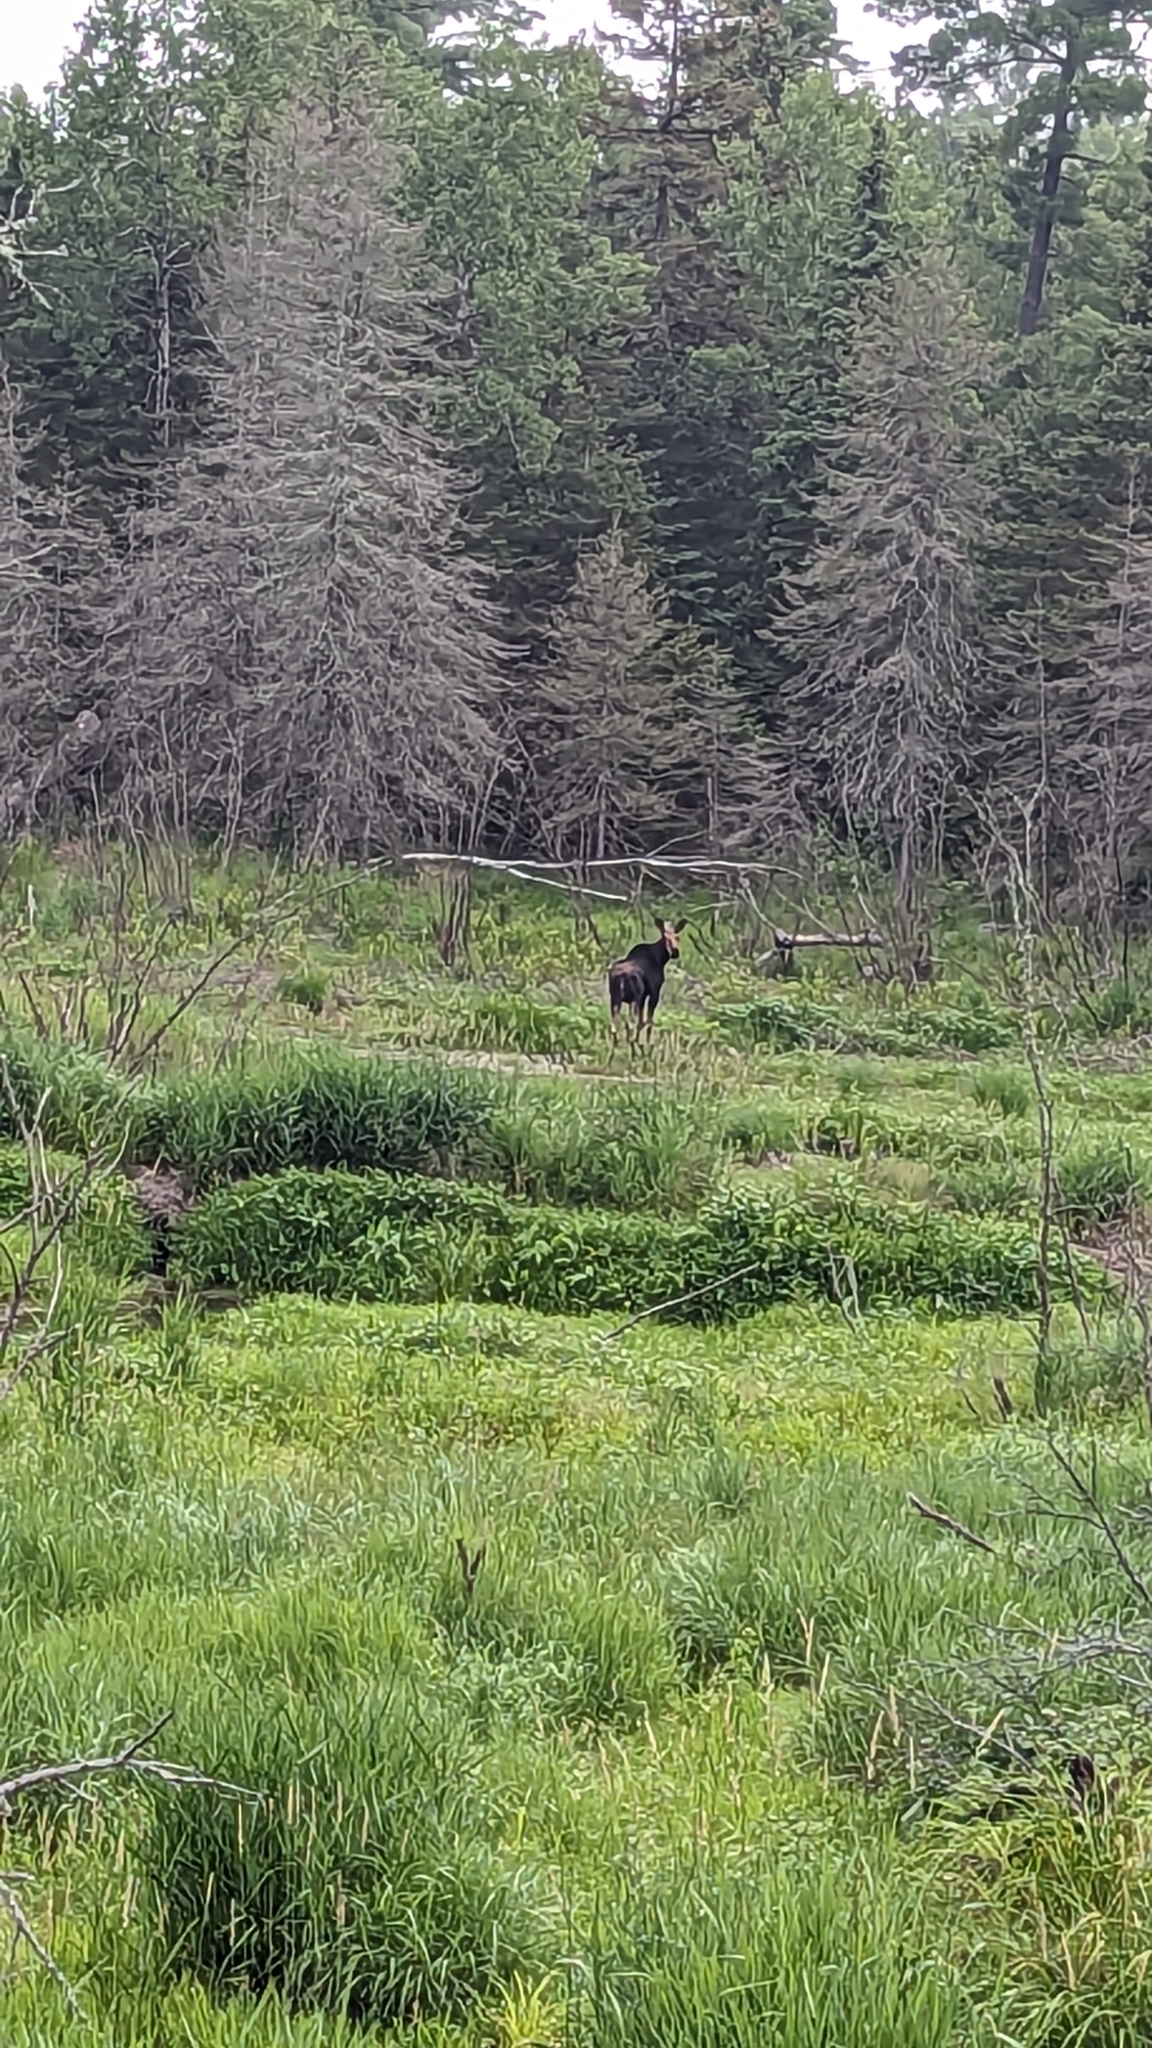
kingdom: Animalia
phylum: Chordata
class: Mammalia
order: Artiodactyla
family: Cervidae
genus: Alces
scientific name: Alces alces
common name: Moose
